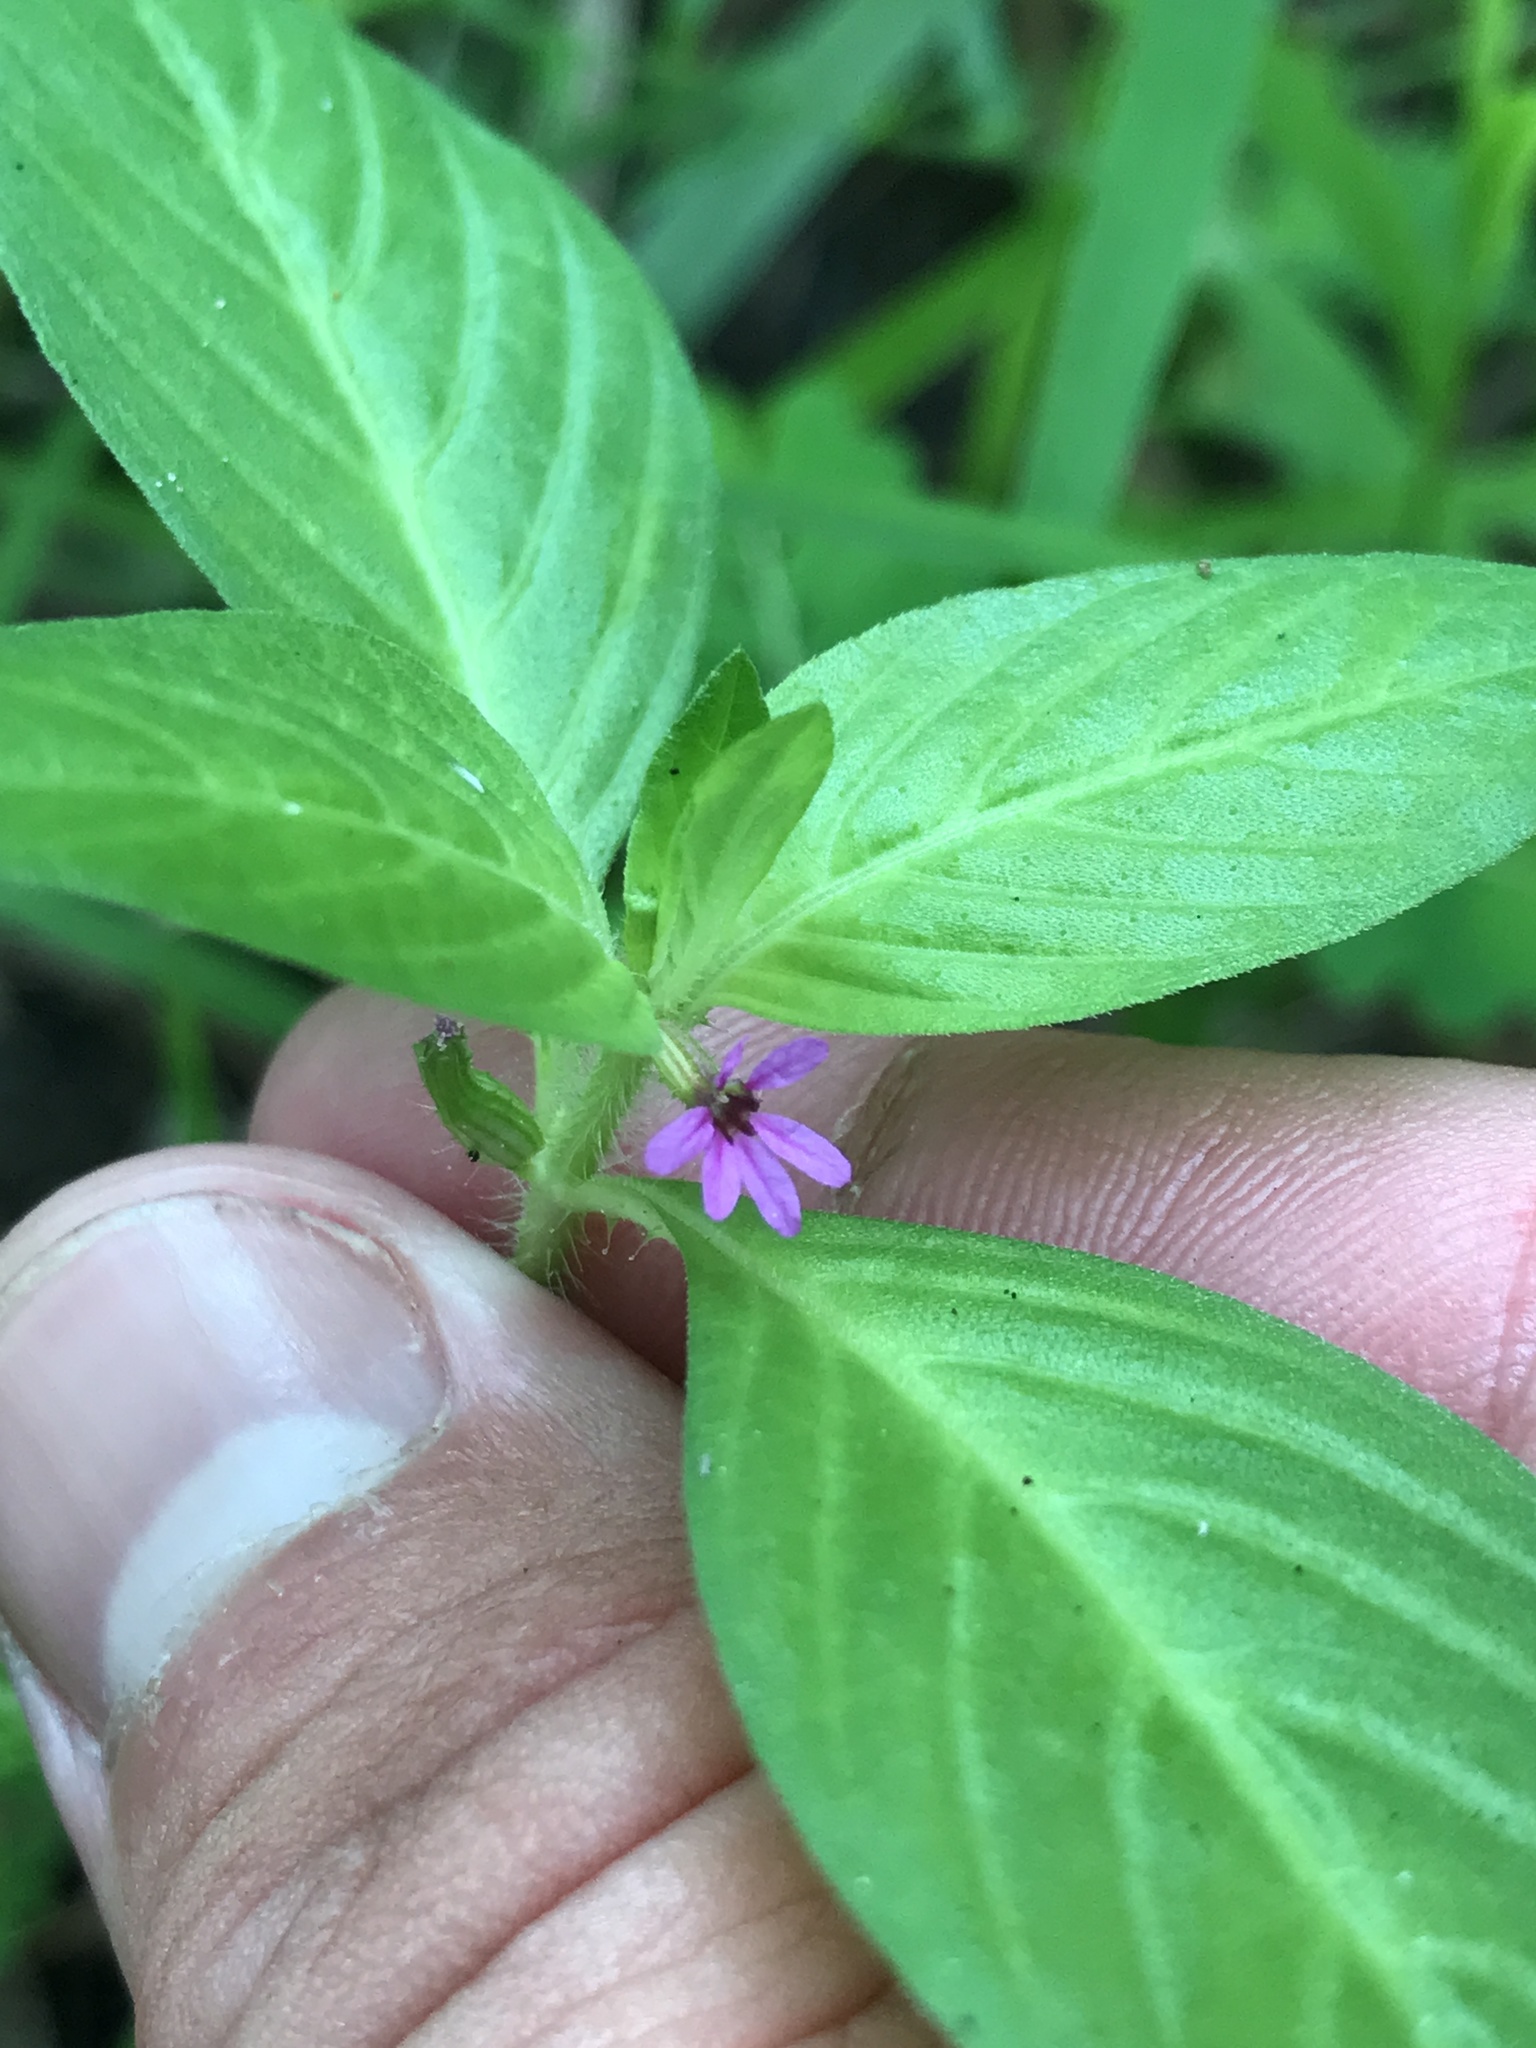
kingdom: Plantae
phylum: Tracheophyta
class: Magnoliopsida
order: Myrtales
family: Lythraceae
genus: Cuphea
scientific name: Cuphea carthagenensis
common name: Colombian waxweed
